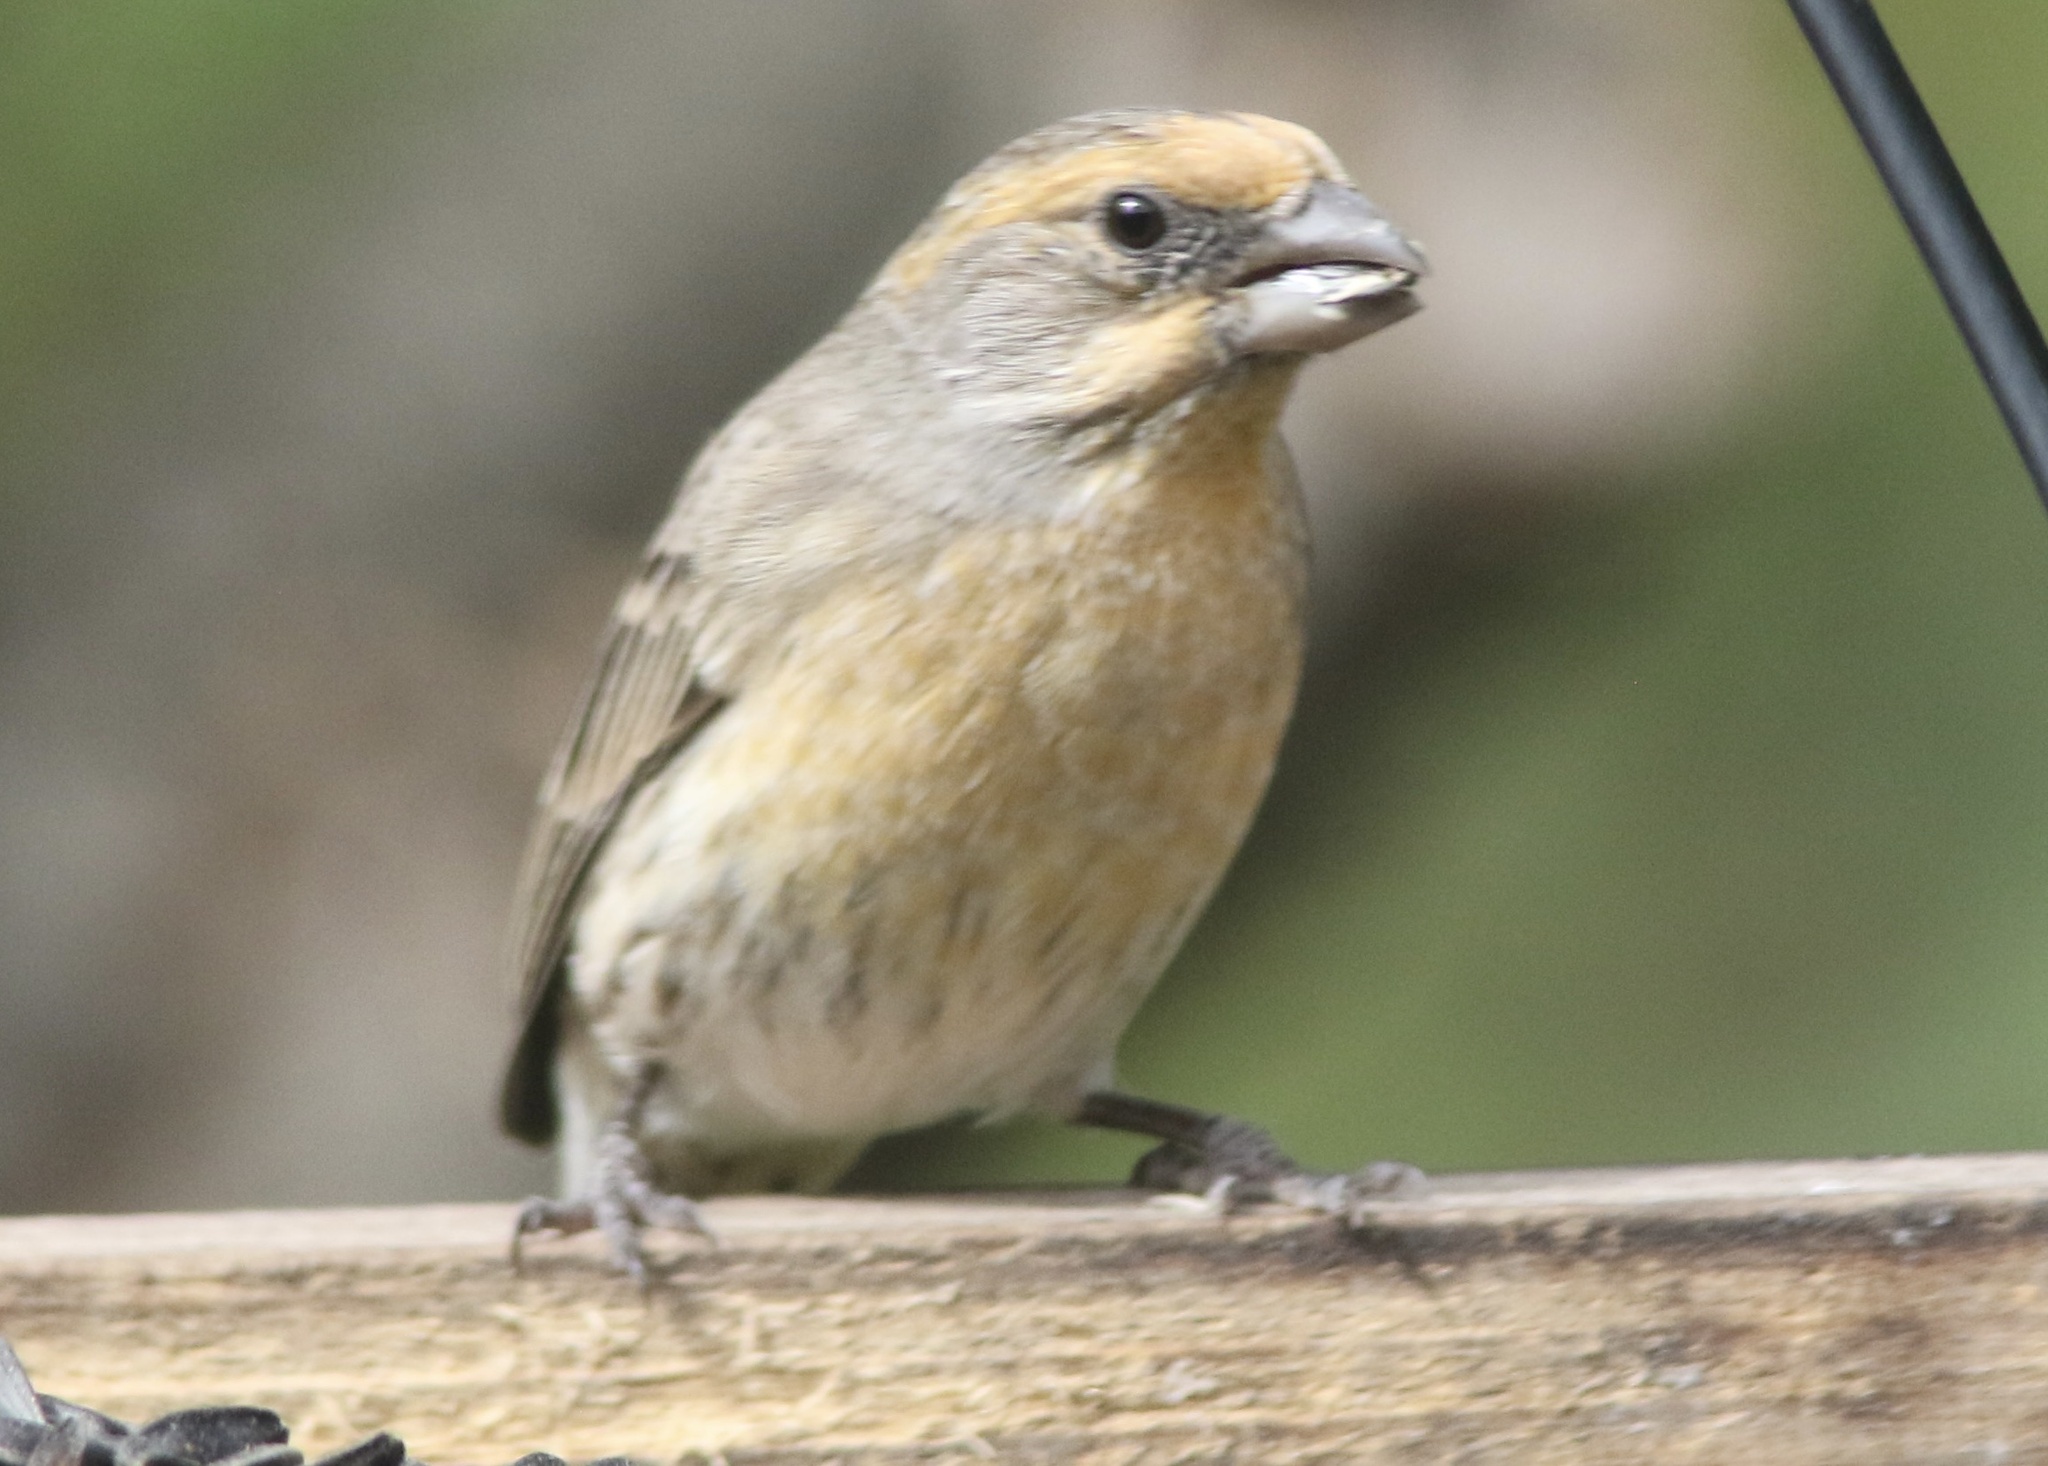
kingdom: Animalia
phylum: Chordata
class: Aves
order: Passeriformes
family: Fringillidae
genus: Haemorhous
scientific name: Haemorhous mexicanus
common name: House finch
